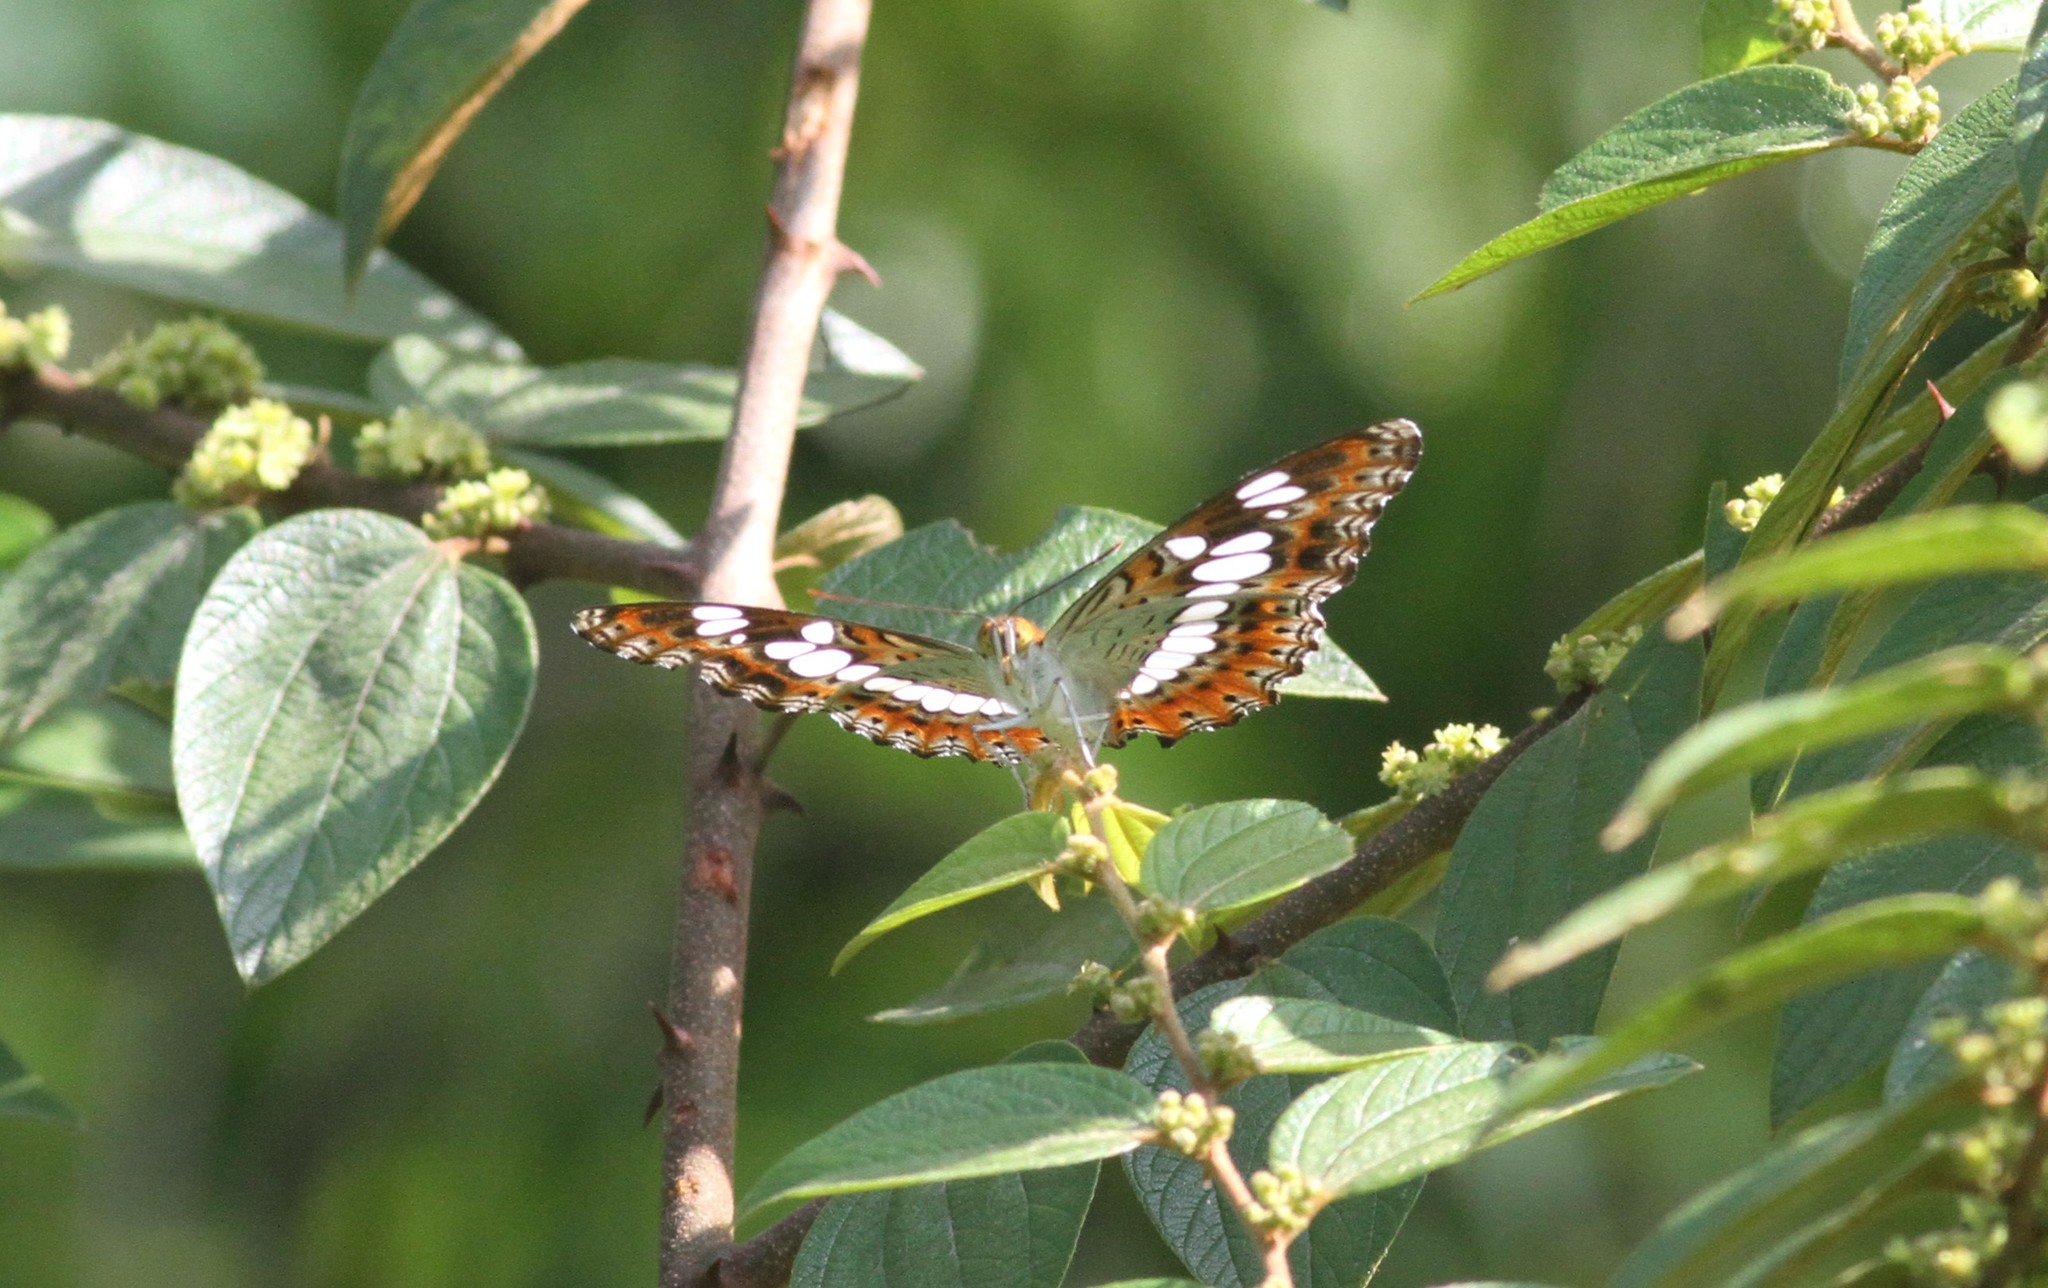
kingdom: Animalia
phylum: Arthropoda
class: Insecta
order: Lepidoptera
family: Nymphalidae
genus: Limenitis
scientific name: Limenitis Moduza procris
